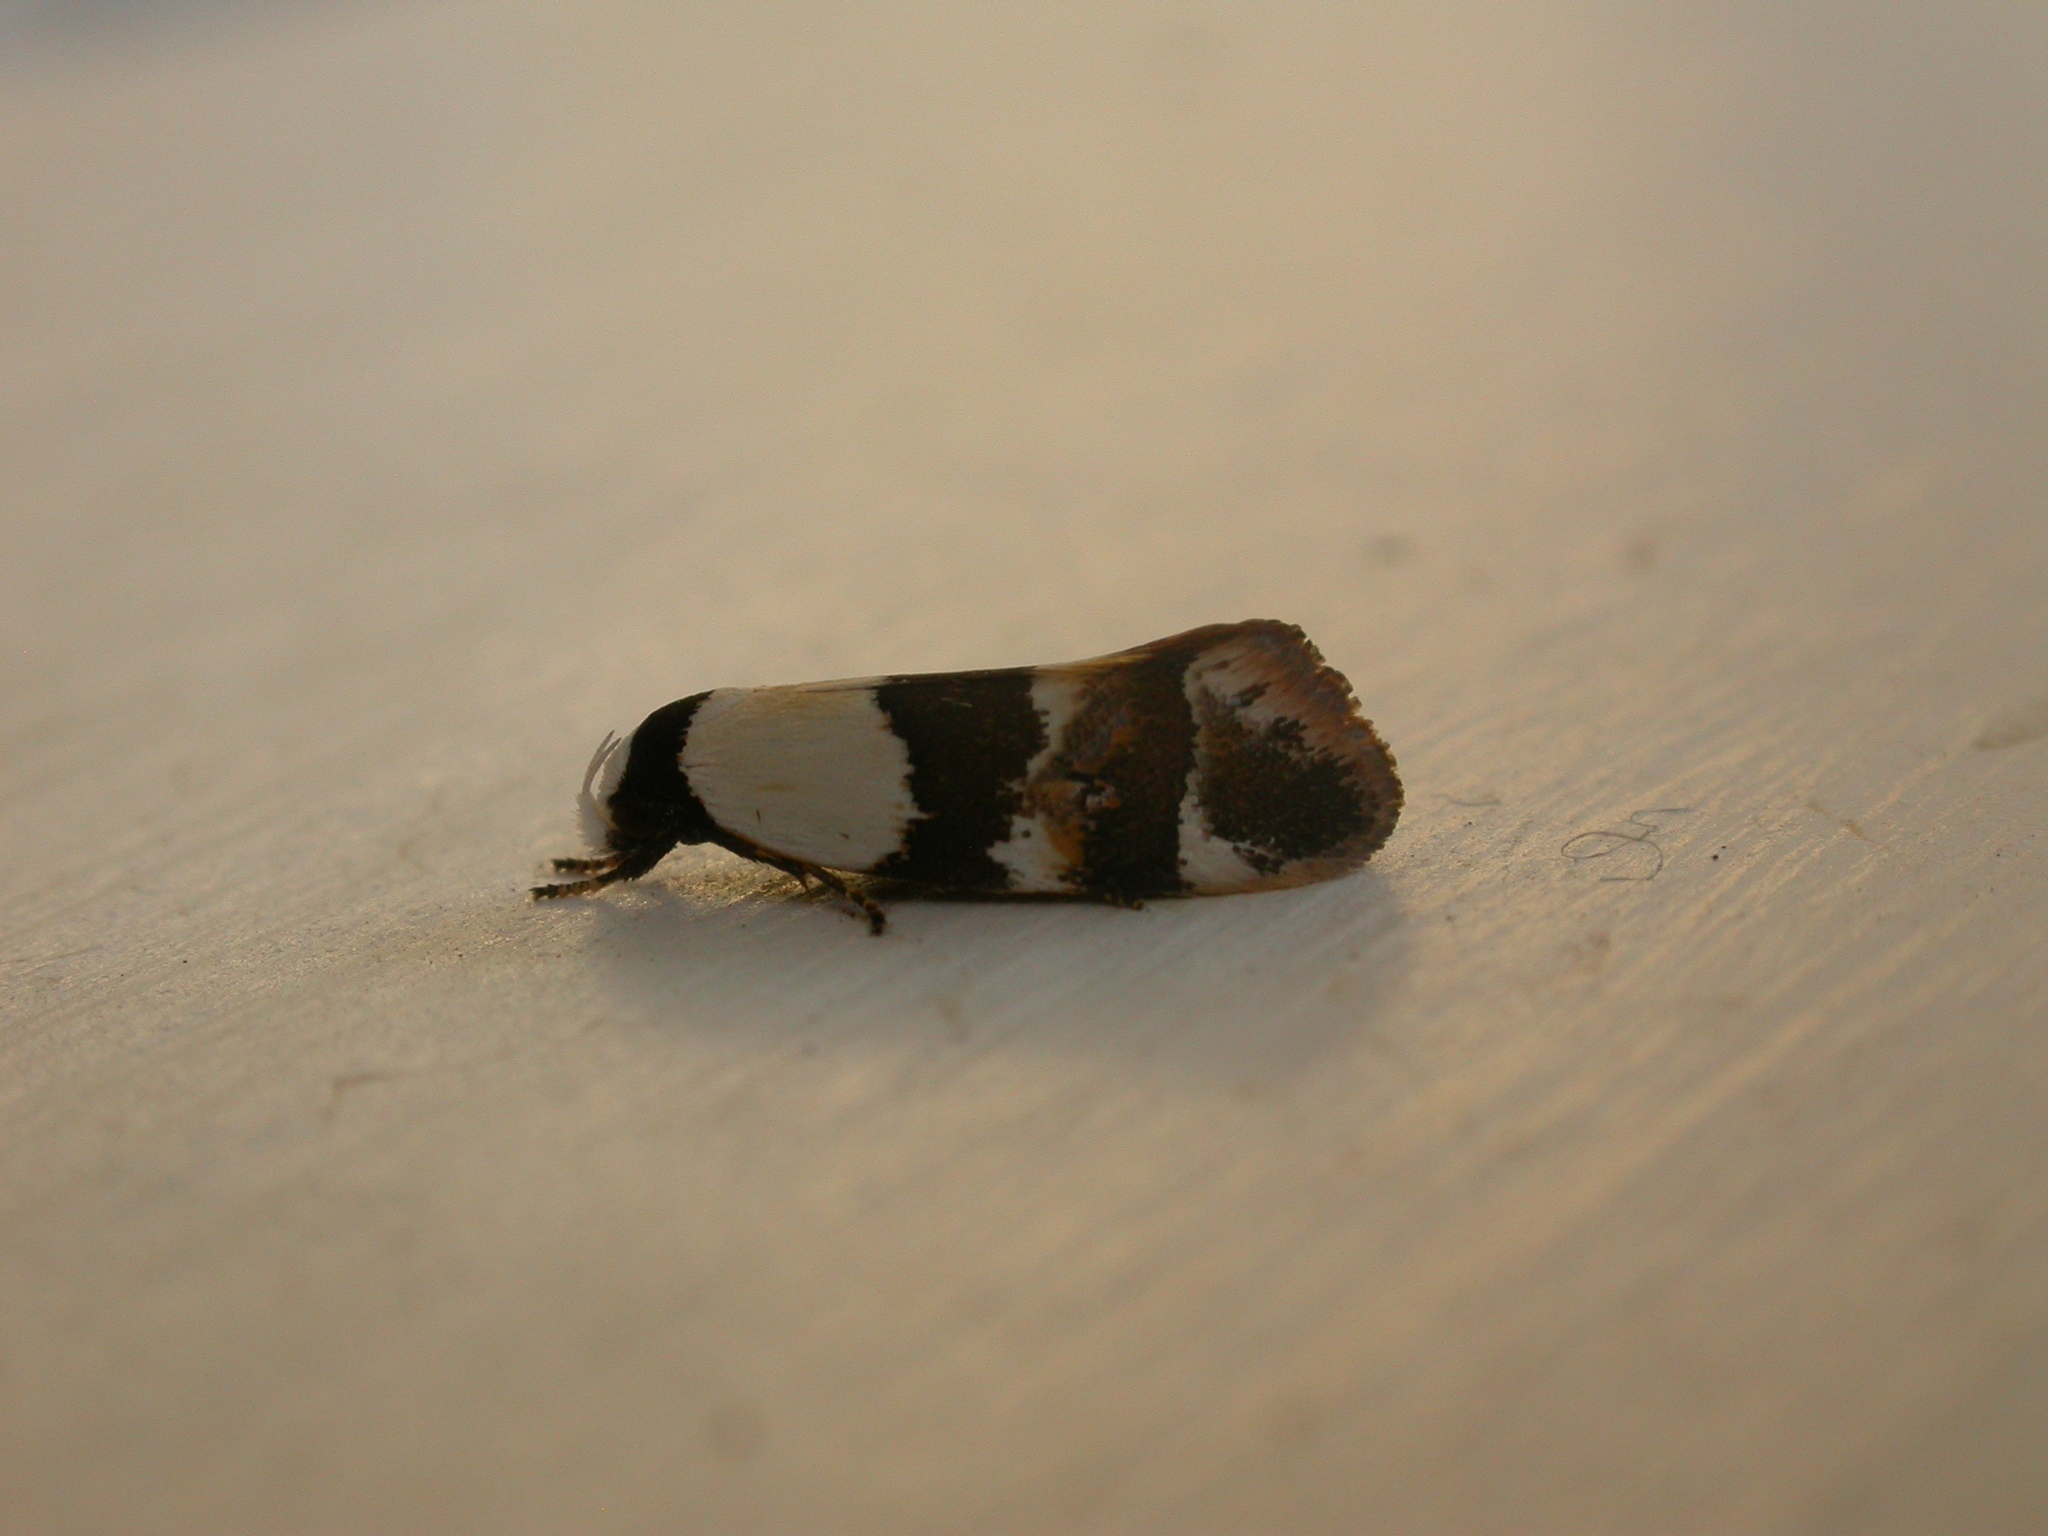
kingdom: Animalia
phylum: Arthropoda
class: Insecta
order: Lepidoptera
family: Oecophoridae
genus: Zonopetala
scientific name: Zonopetala decisana
